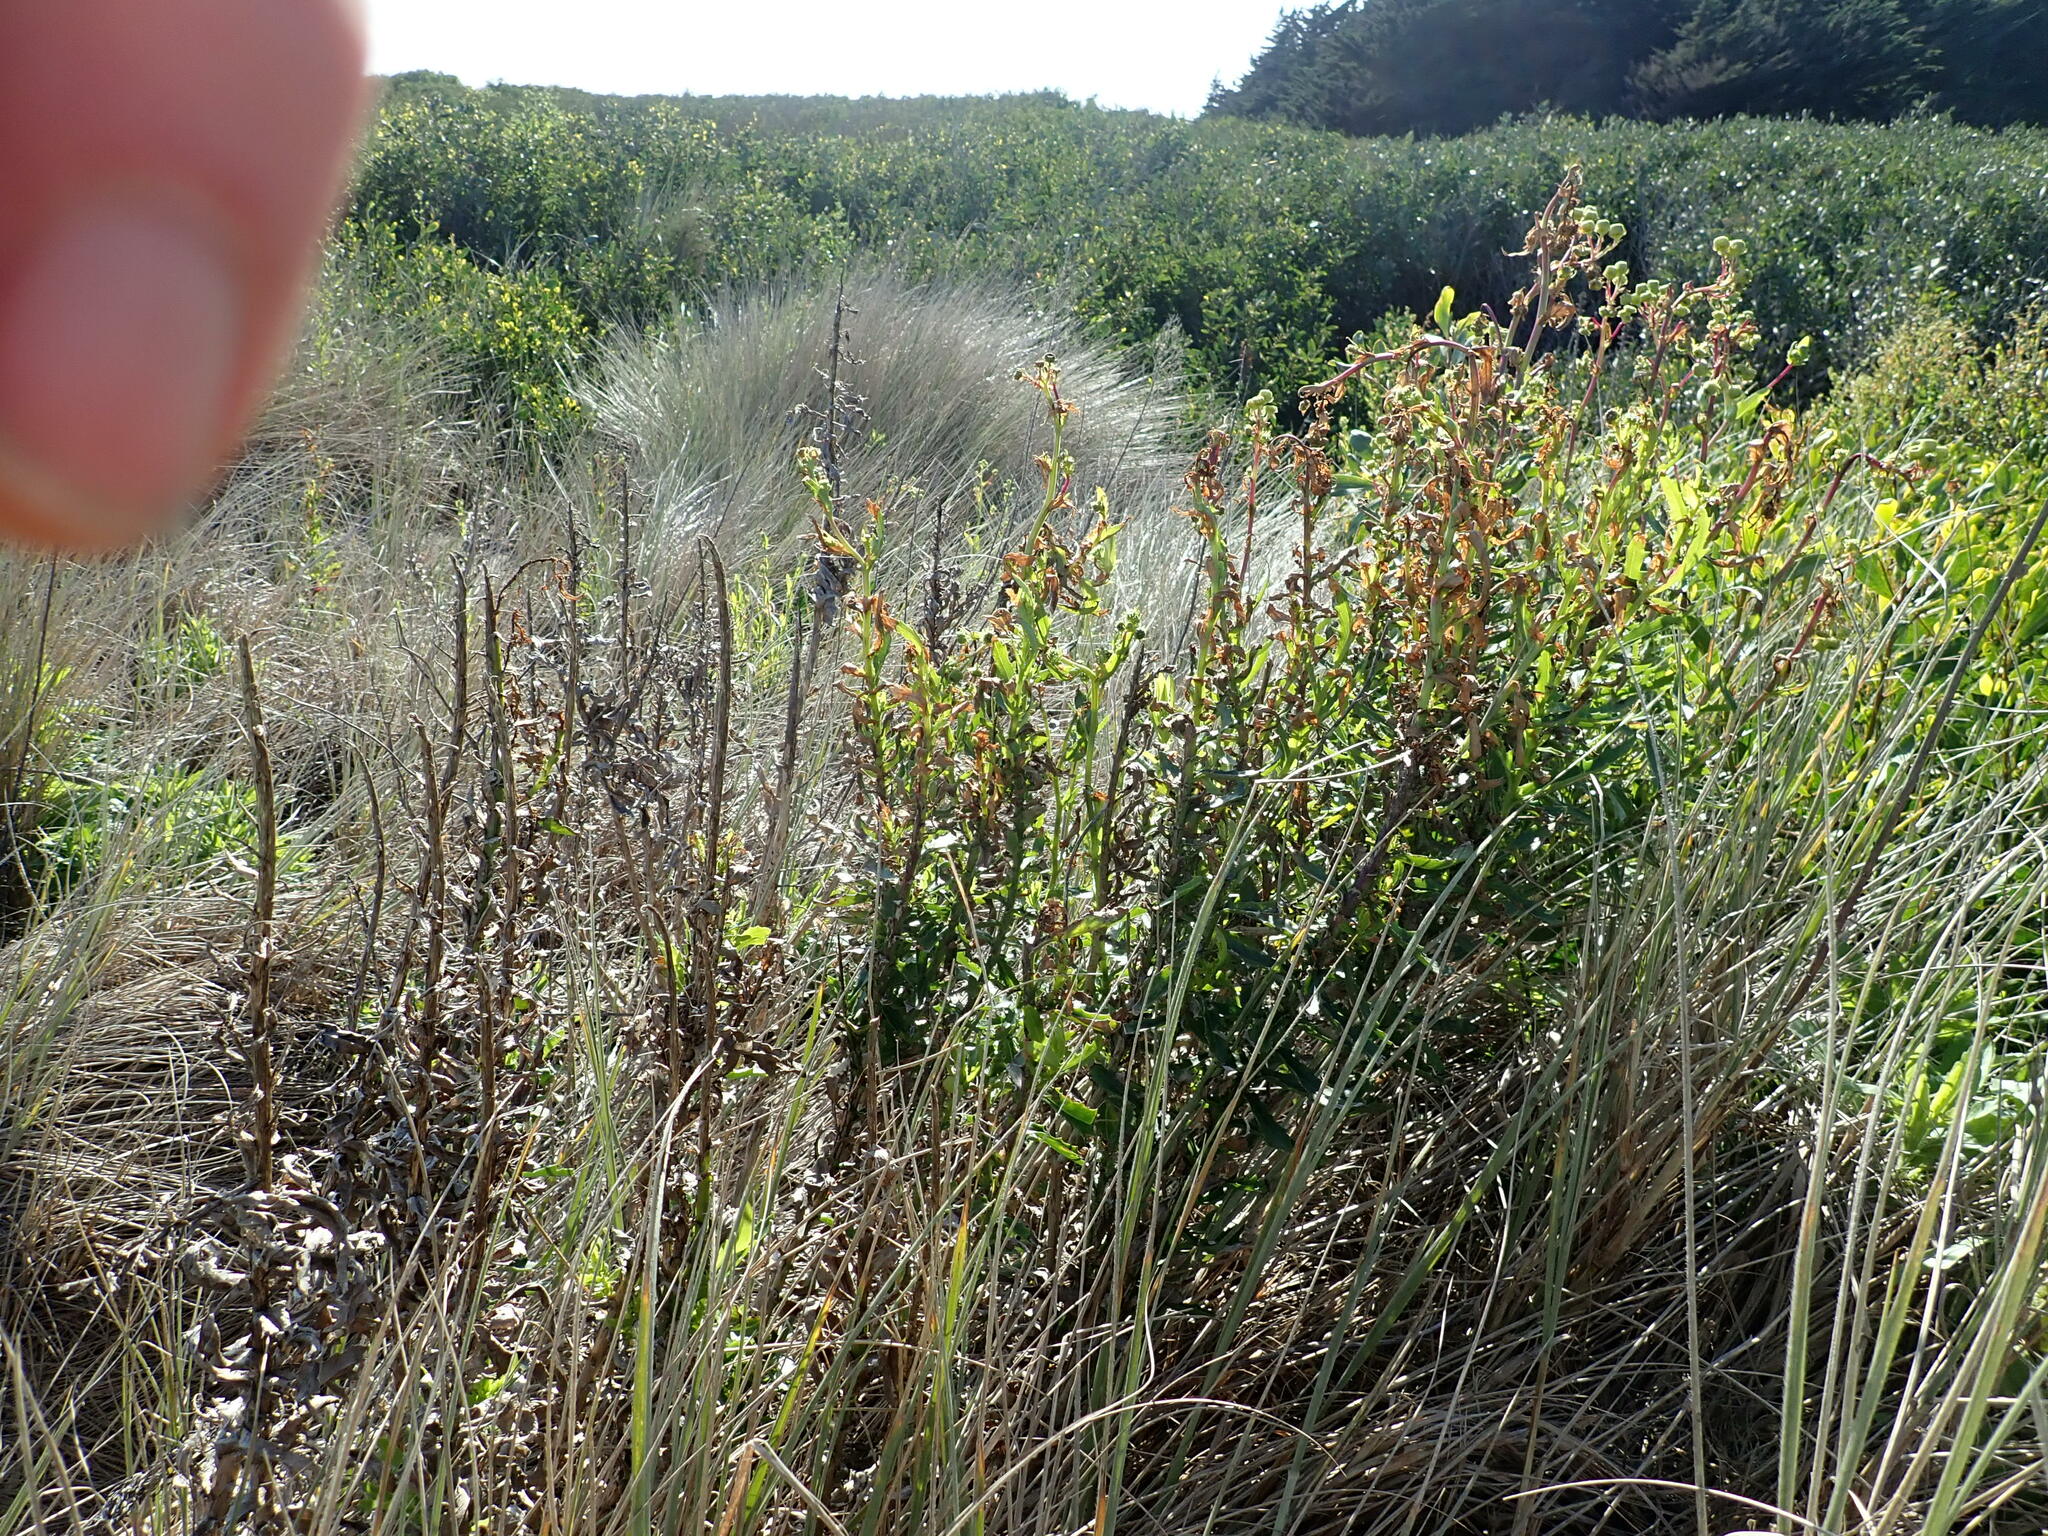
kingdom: Plantae
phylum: Tracheophyta
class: Magnoliopsida
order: Asterales
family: Asteraceae
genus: Senecio
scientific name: Senecio glastifolius
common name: Woad-leaved ragwort
